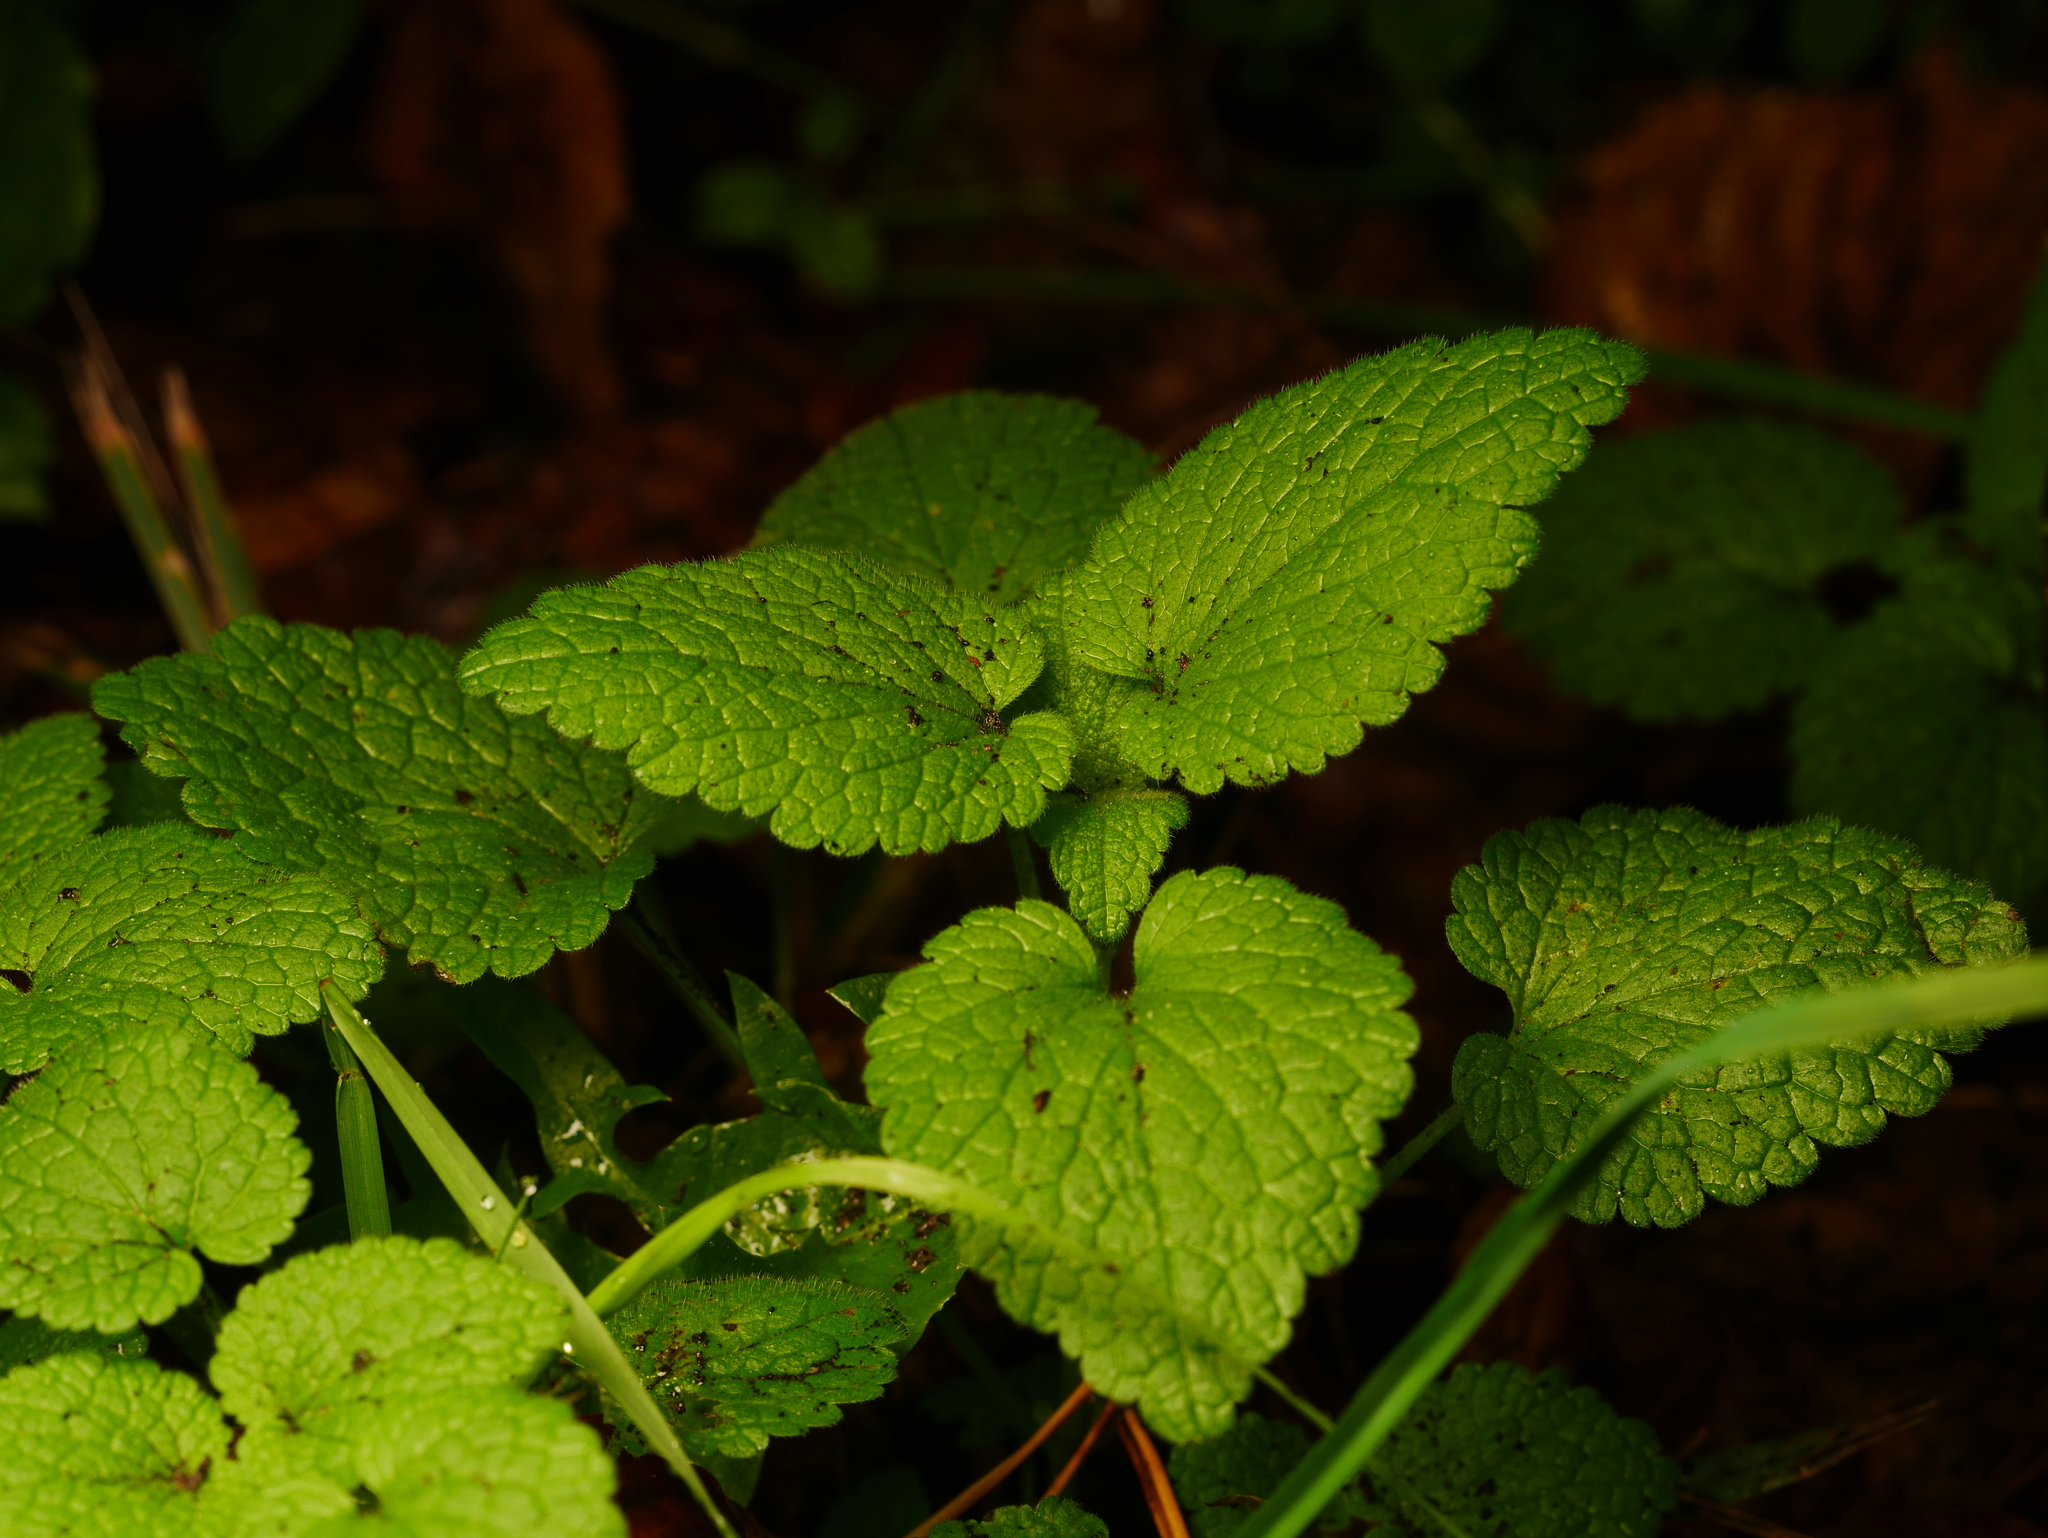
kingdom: Plantae
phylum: Tracheophyta
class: Magnoliopsida
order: Lamiales
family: Lamiaceae
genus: Lamium
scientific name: Lamium purpureum
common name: Red dead-nettle
